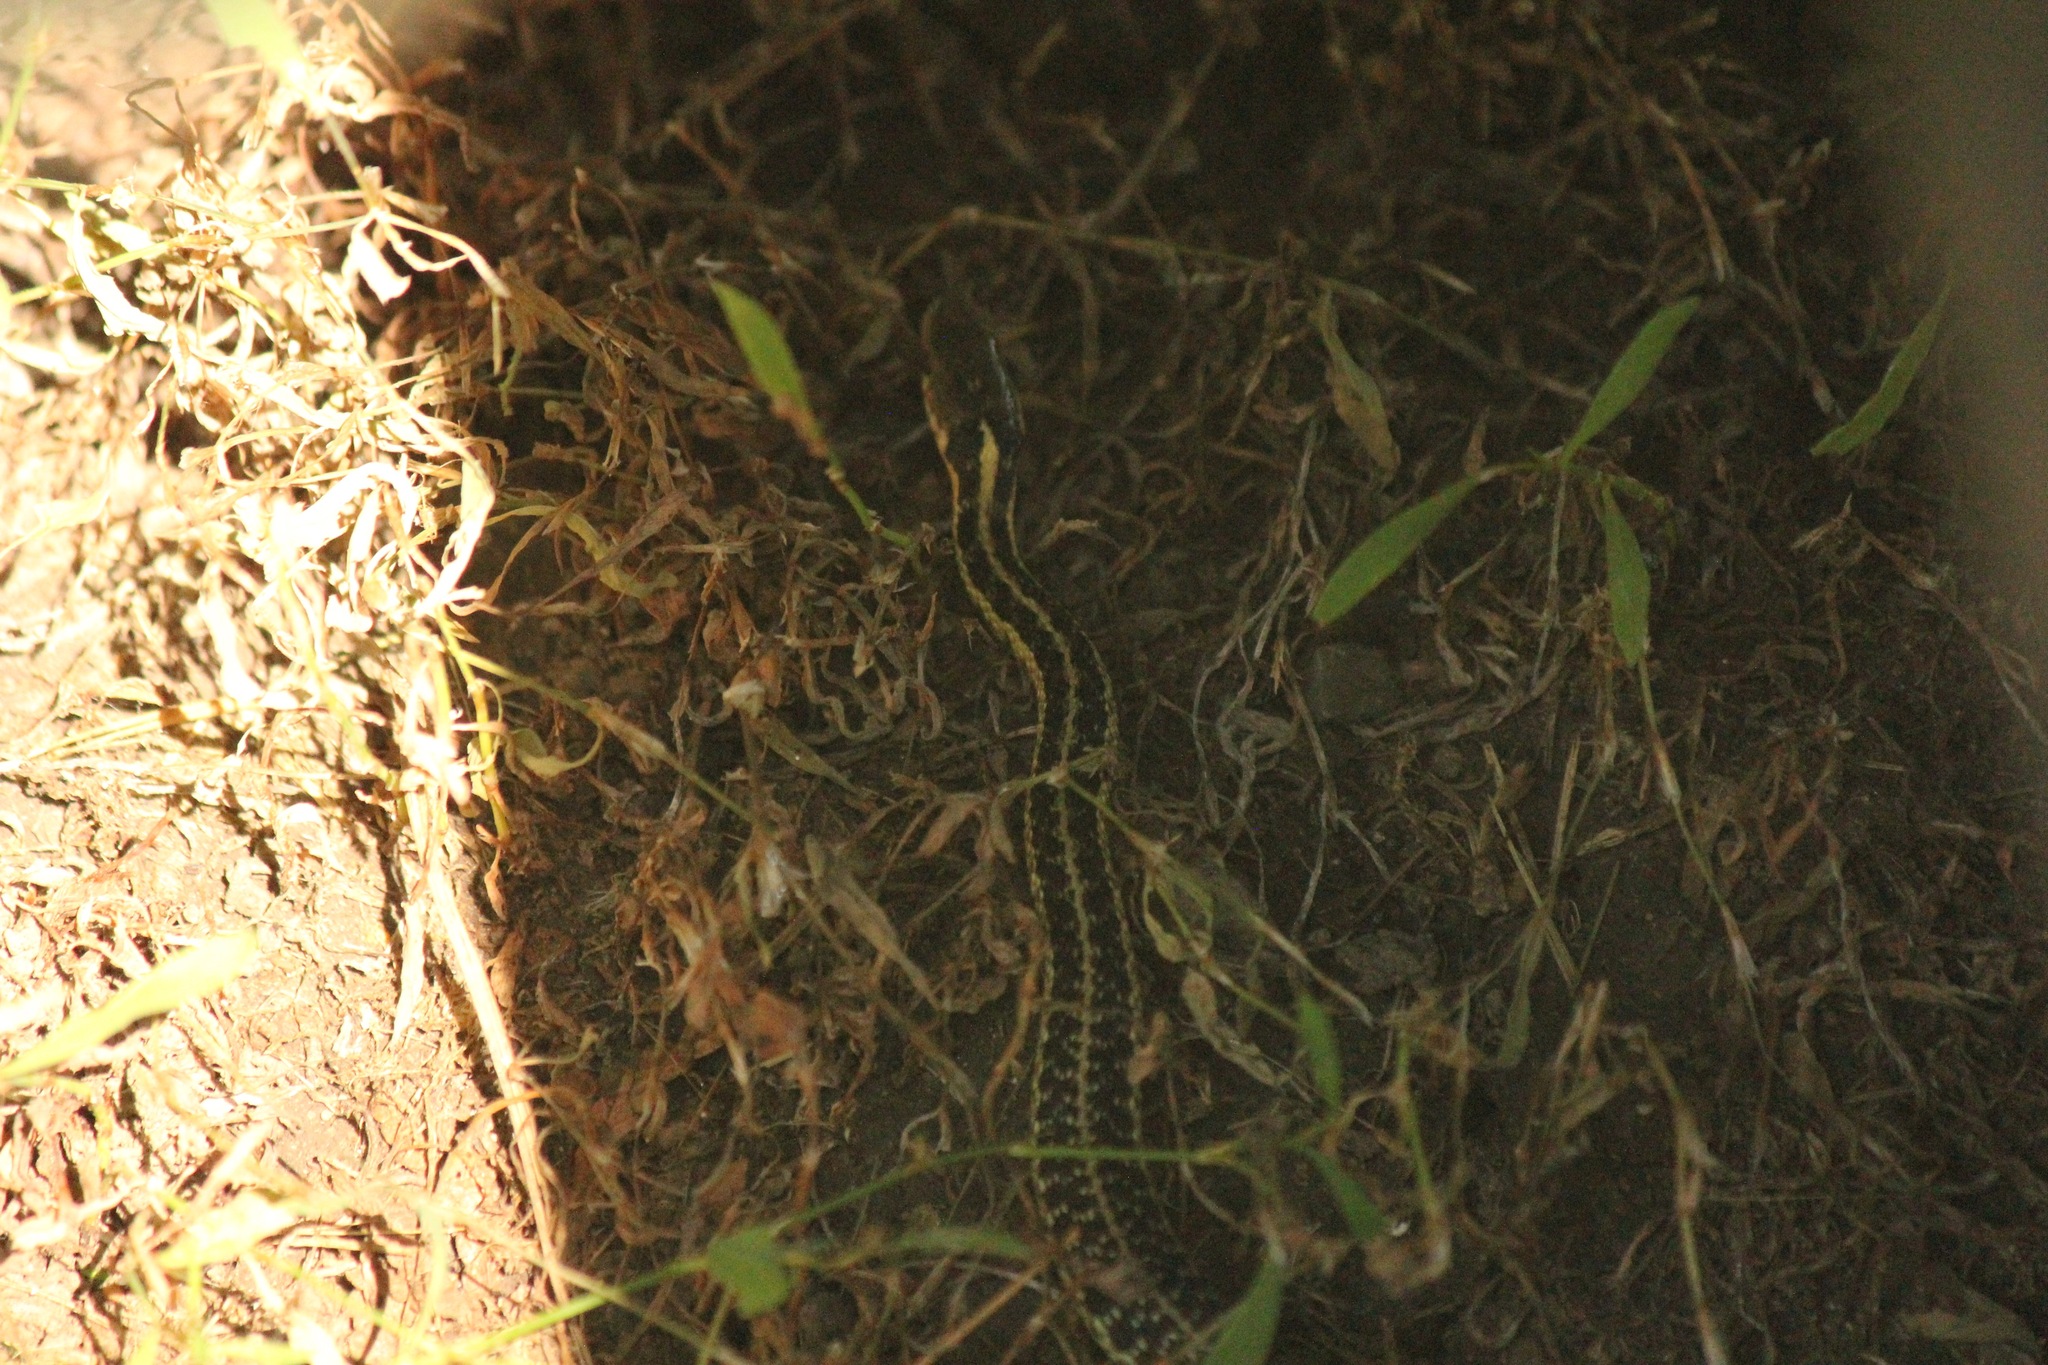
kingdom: Animalia
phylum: Chordata
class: Squamata
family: Colubridae
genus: Thamnophis
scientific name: Thamnophis sirtalis
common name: Common garter snake
